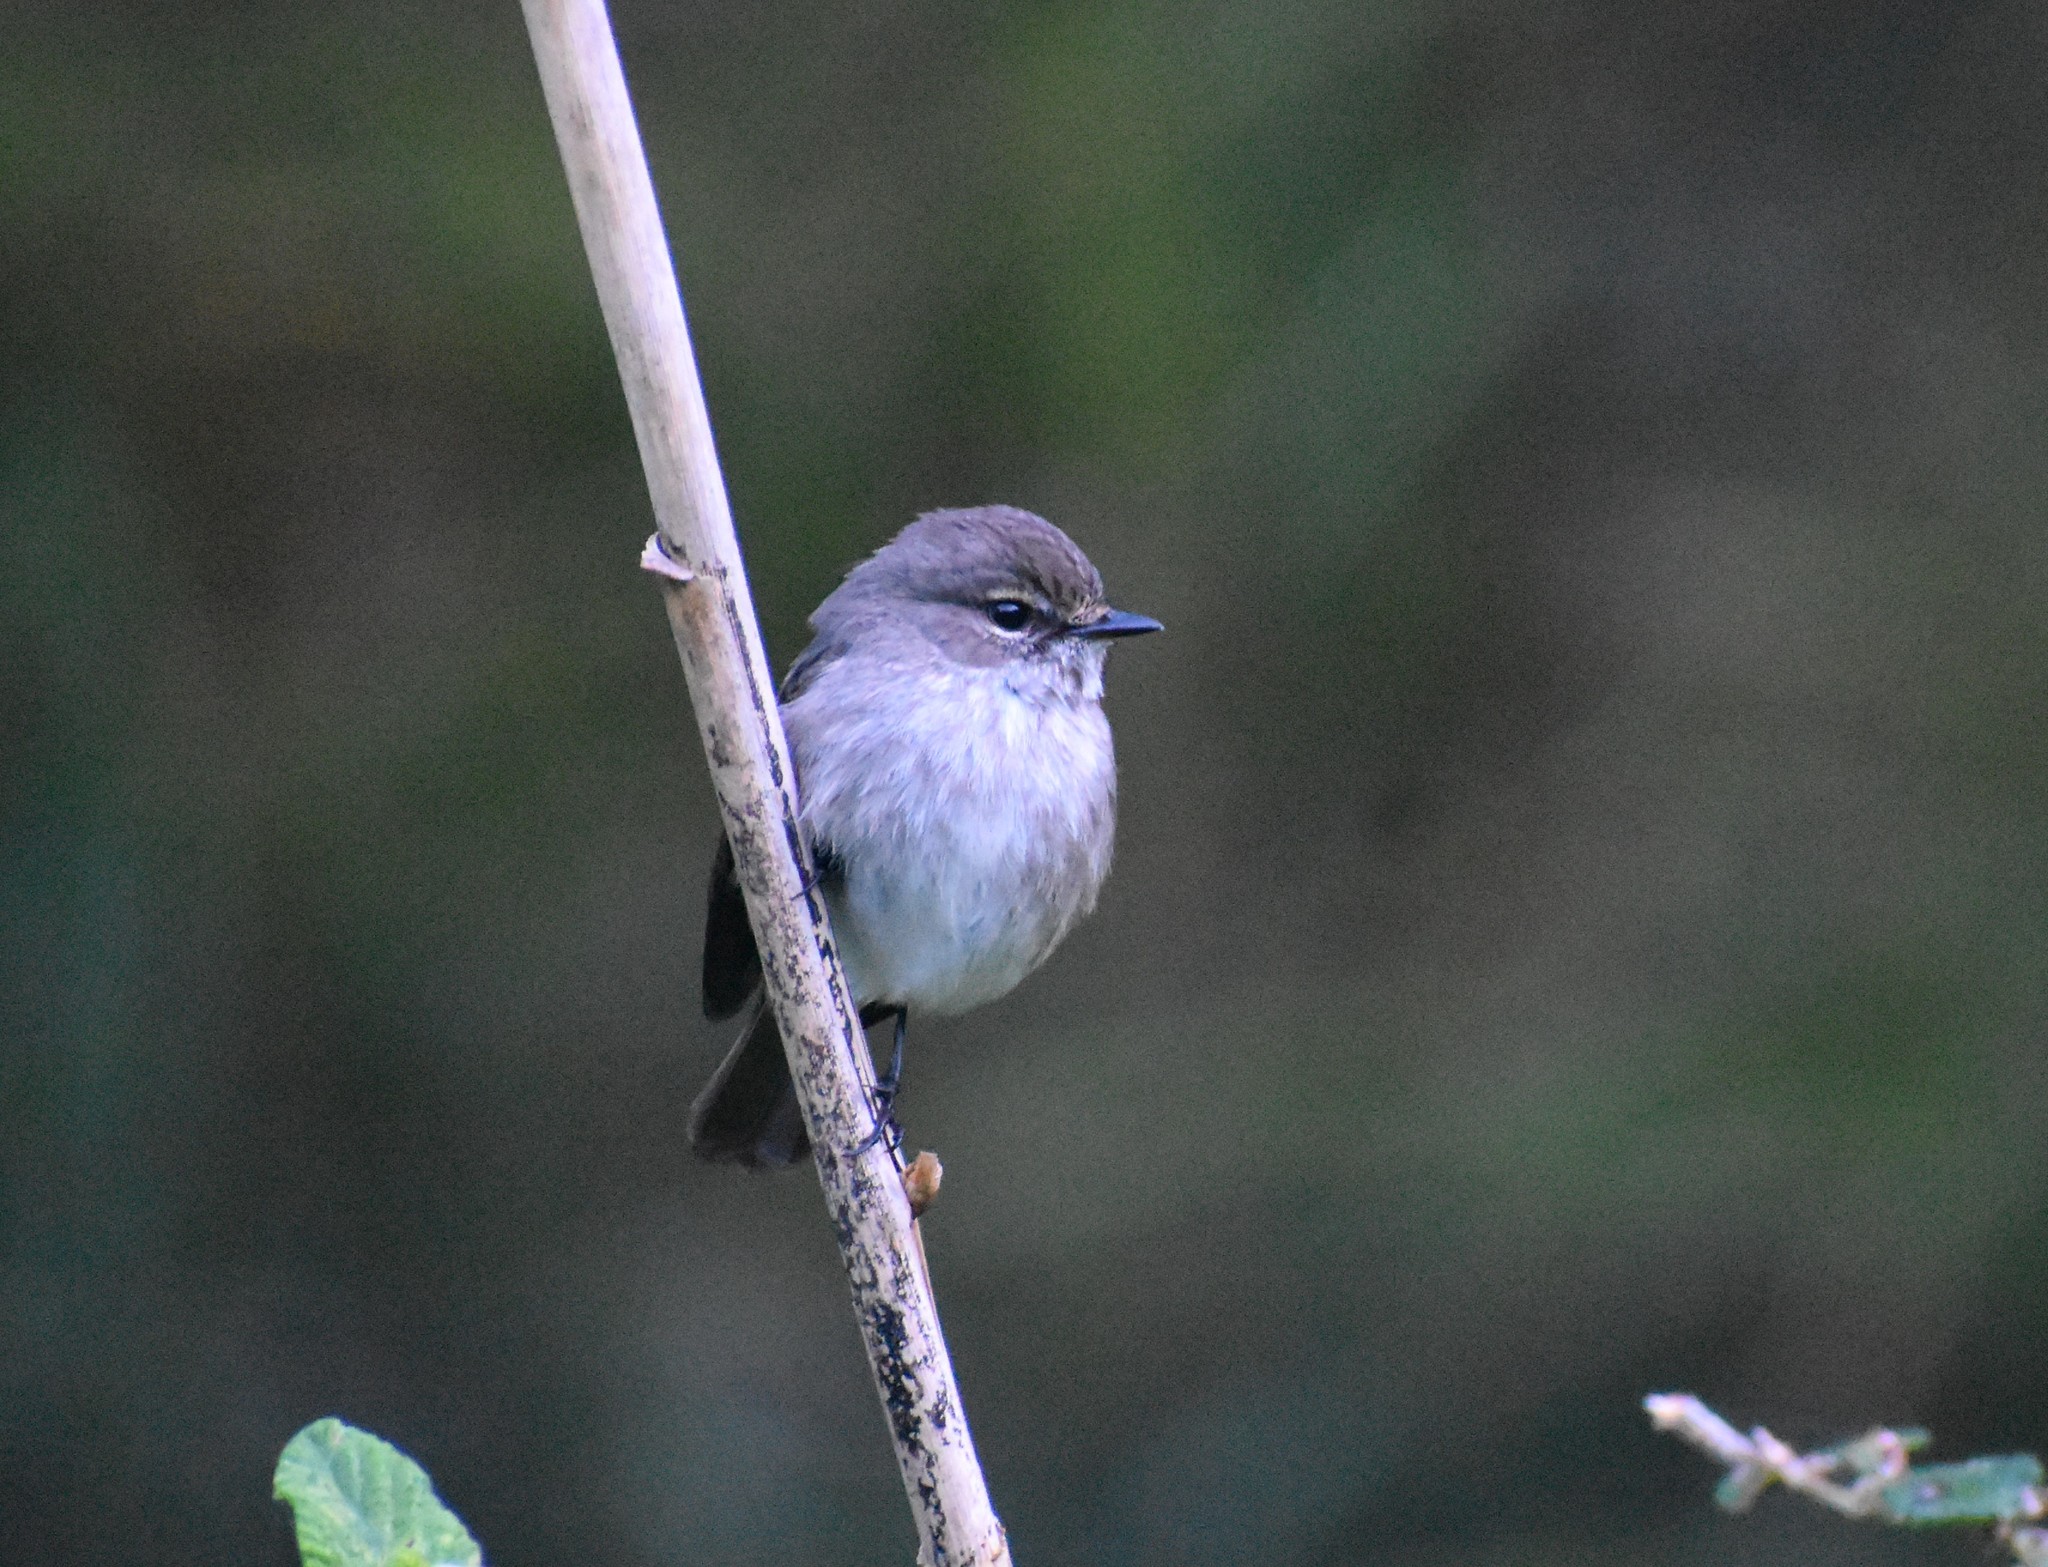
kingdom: Animalia
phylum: Chordata
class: Aves
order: Passeriformes
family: Muscicapidae
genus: Muscicapa
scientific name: Muscicapa adusta
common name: African dusky flycatcher
